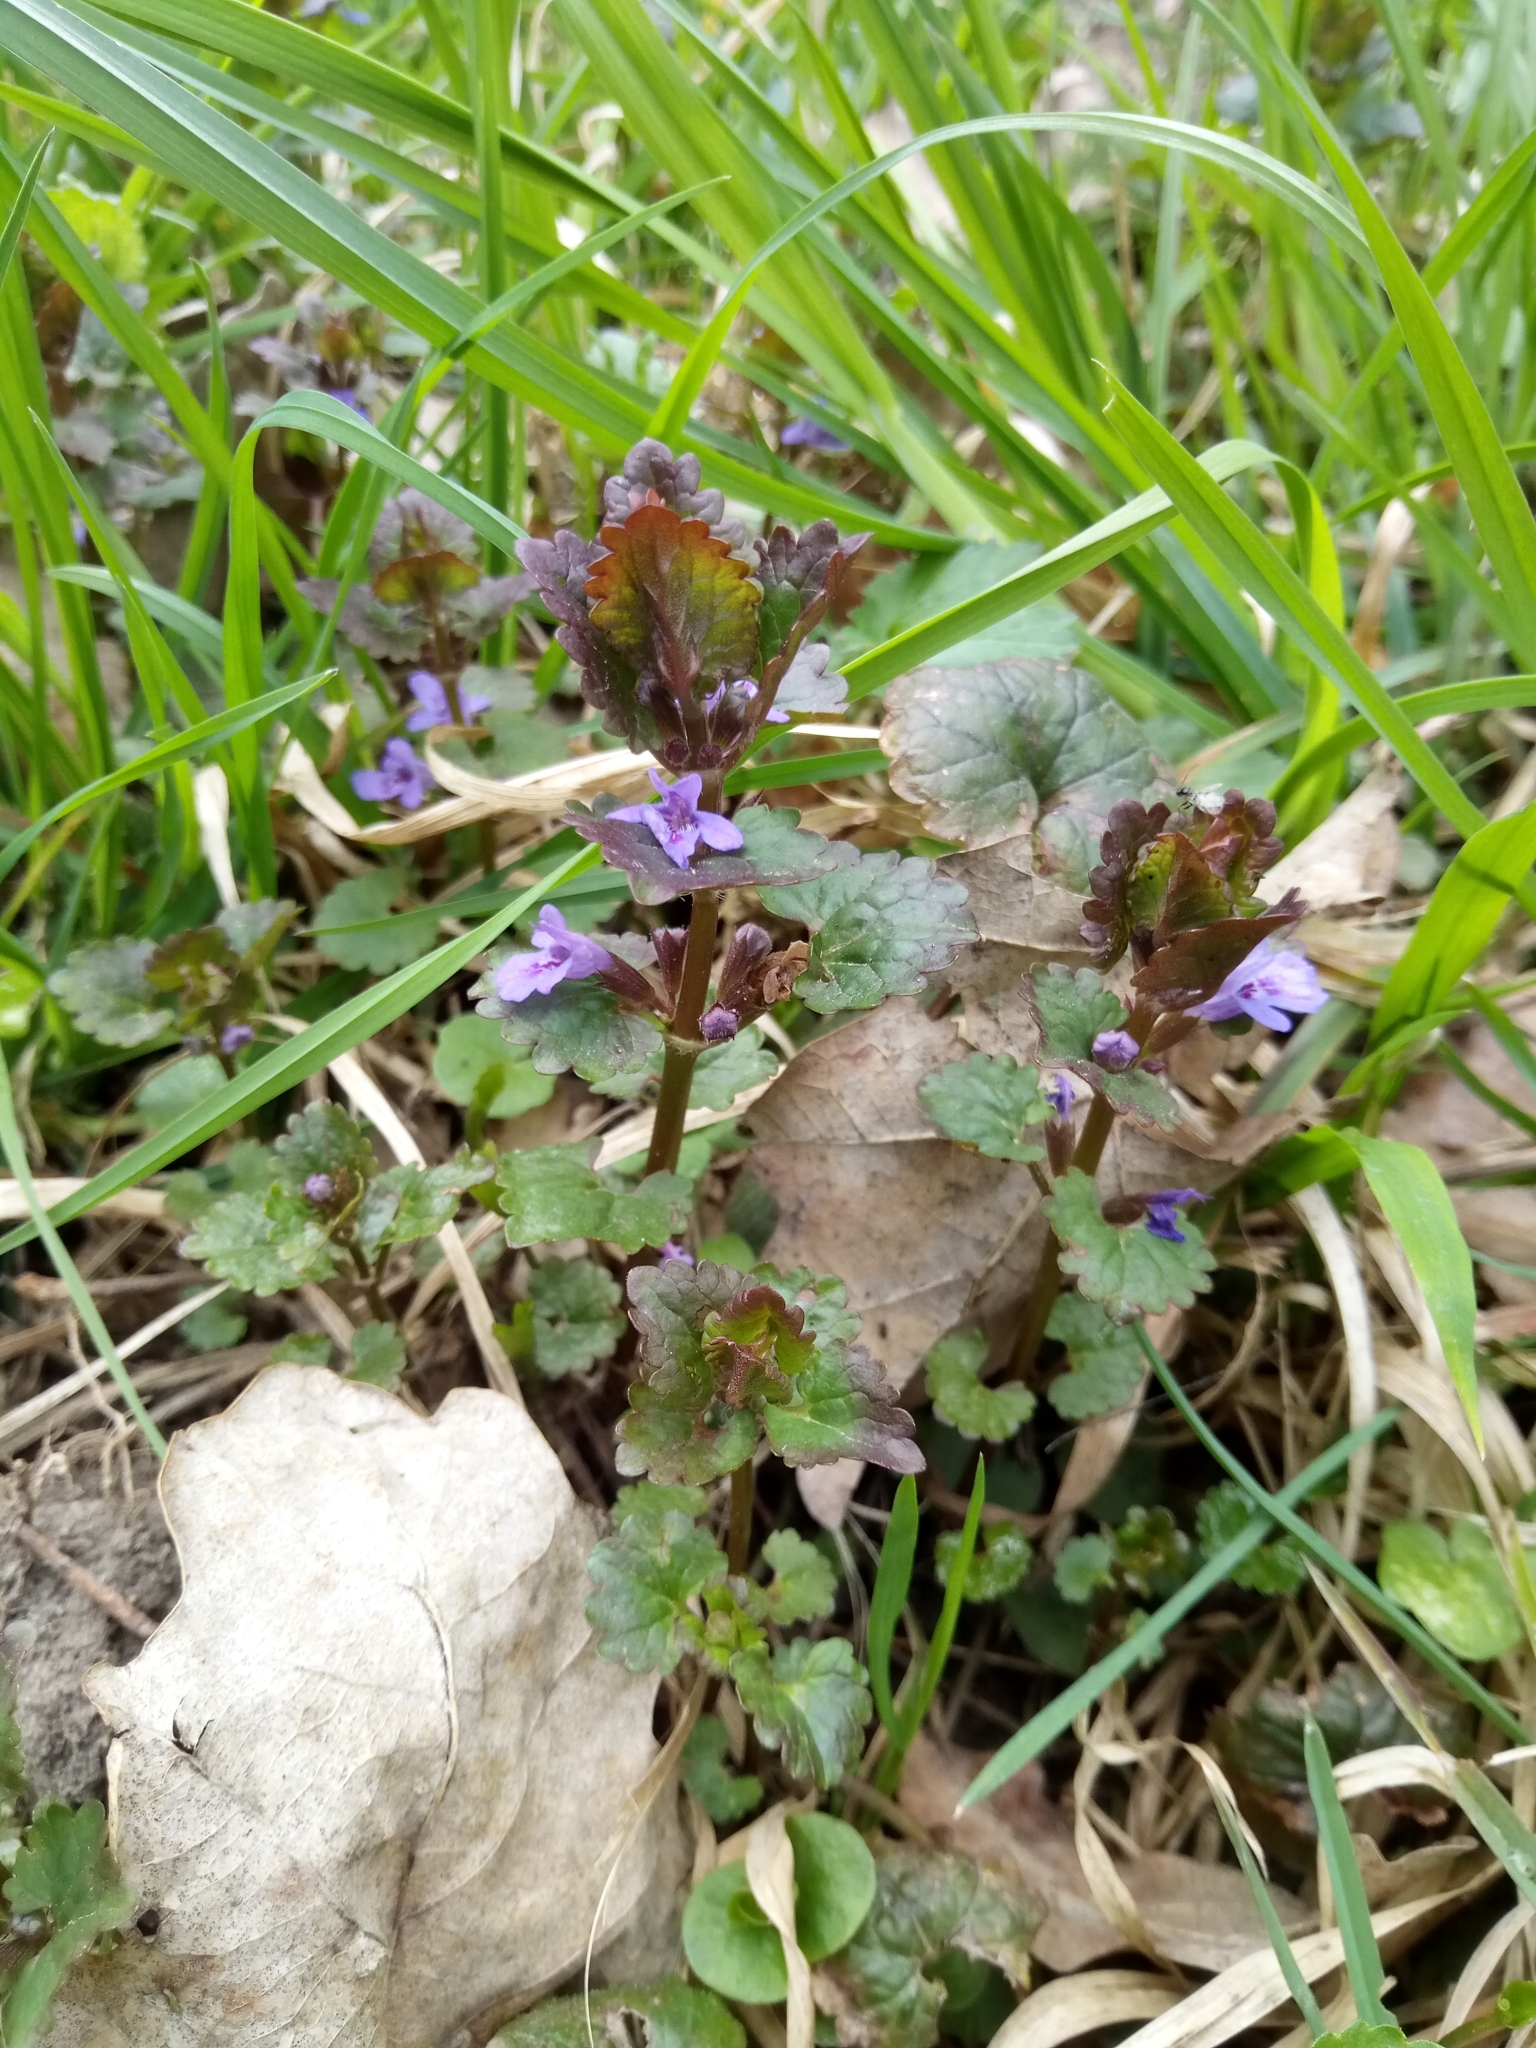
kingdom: Plantae
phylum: Tracheophyta
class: Magnoliopsida
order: Lamiales
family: Lamiaceae
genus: Glechoma
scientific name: Glechoma hederacea
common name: Ground ivy
